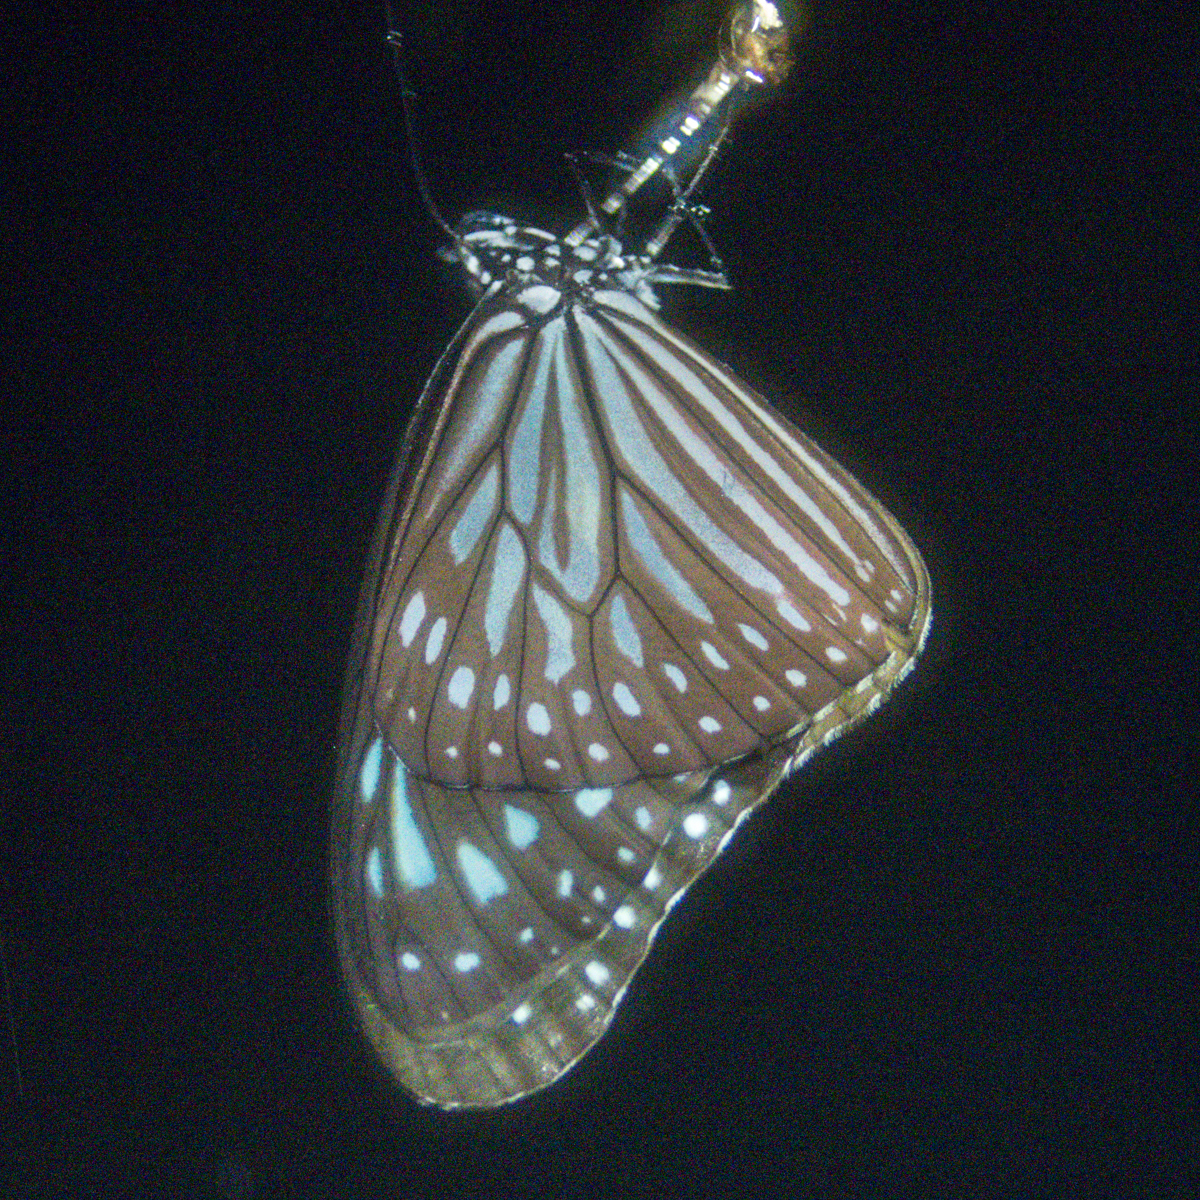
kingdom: Animalia
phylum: Arthropoda
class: Insecta
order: Lepidoptera
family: Nymphalidae
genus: Ideopsis
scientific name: Ideopsis vulgaris
